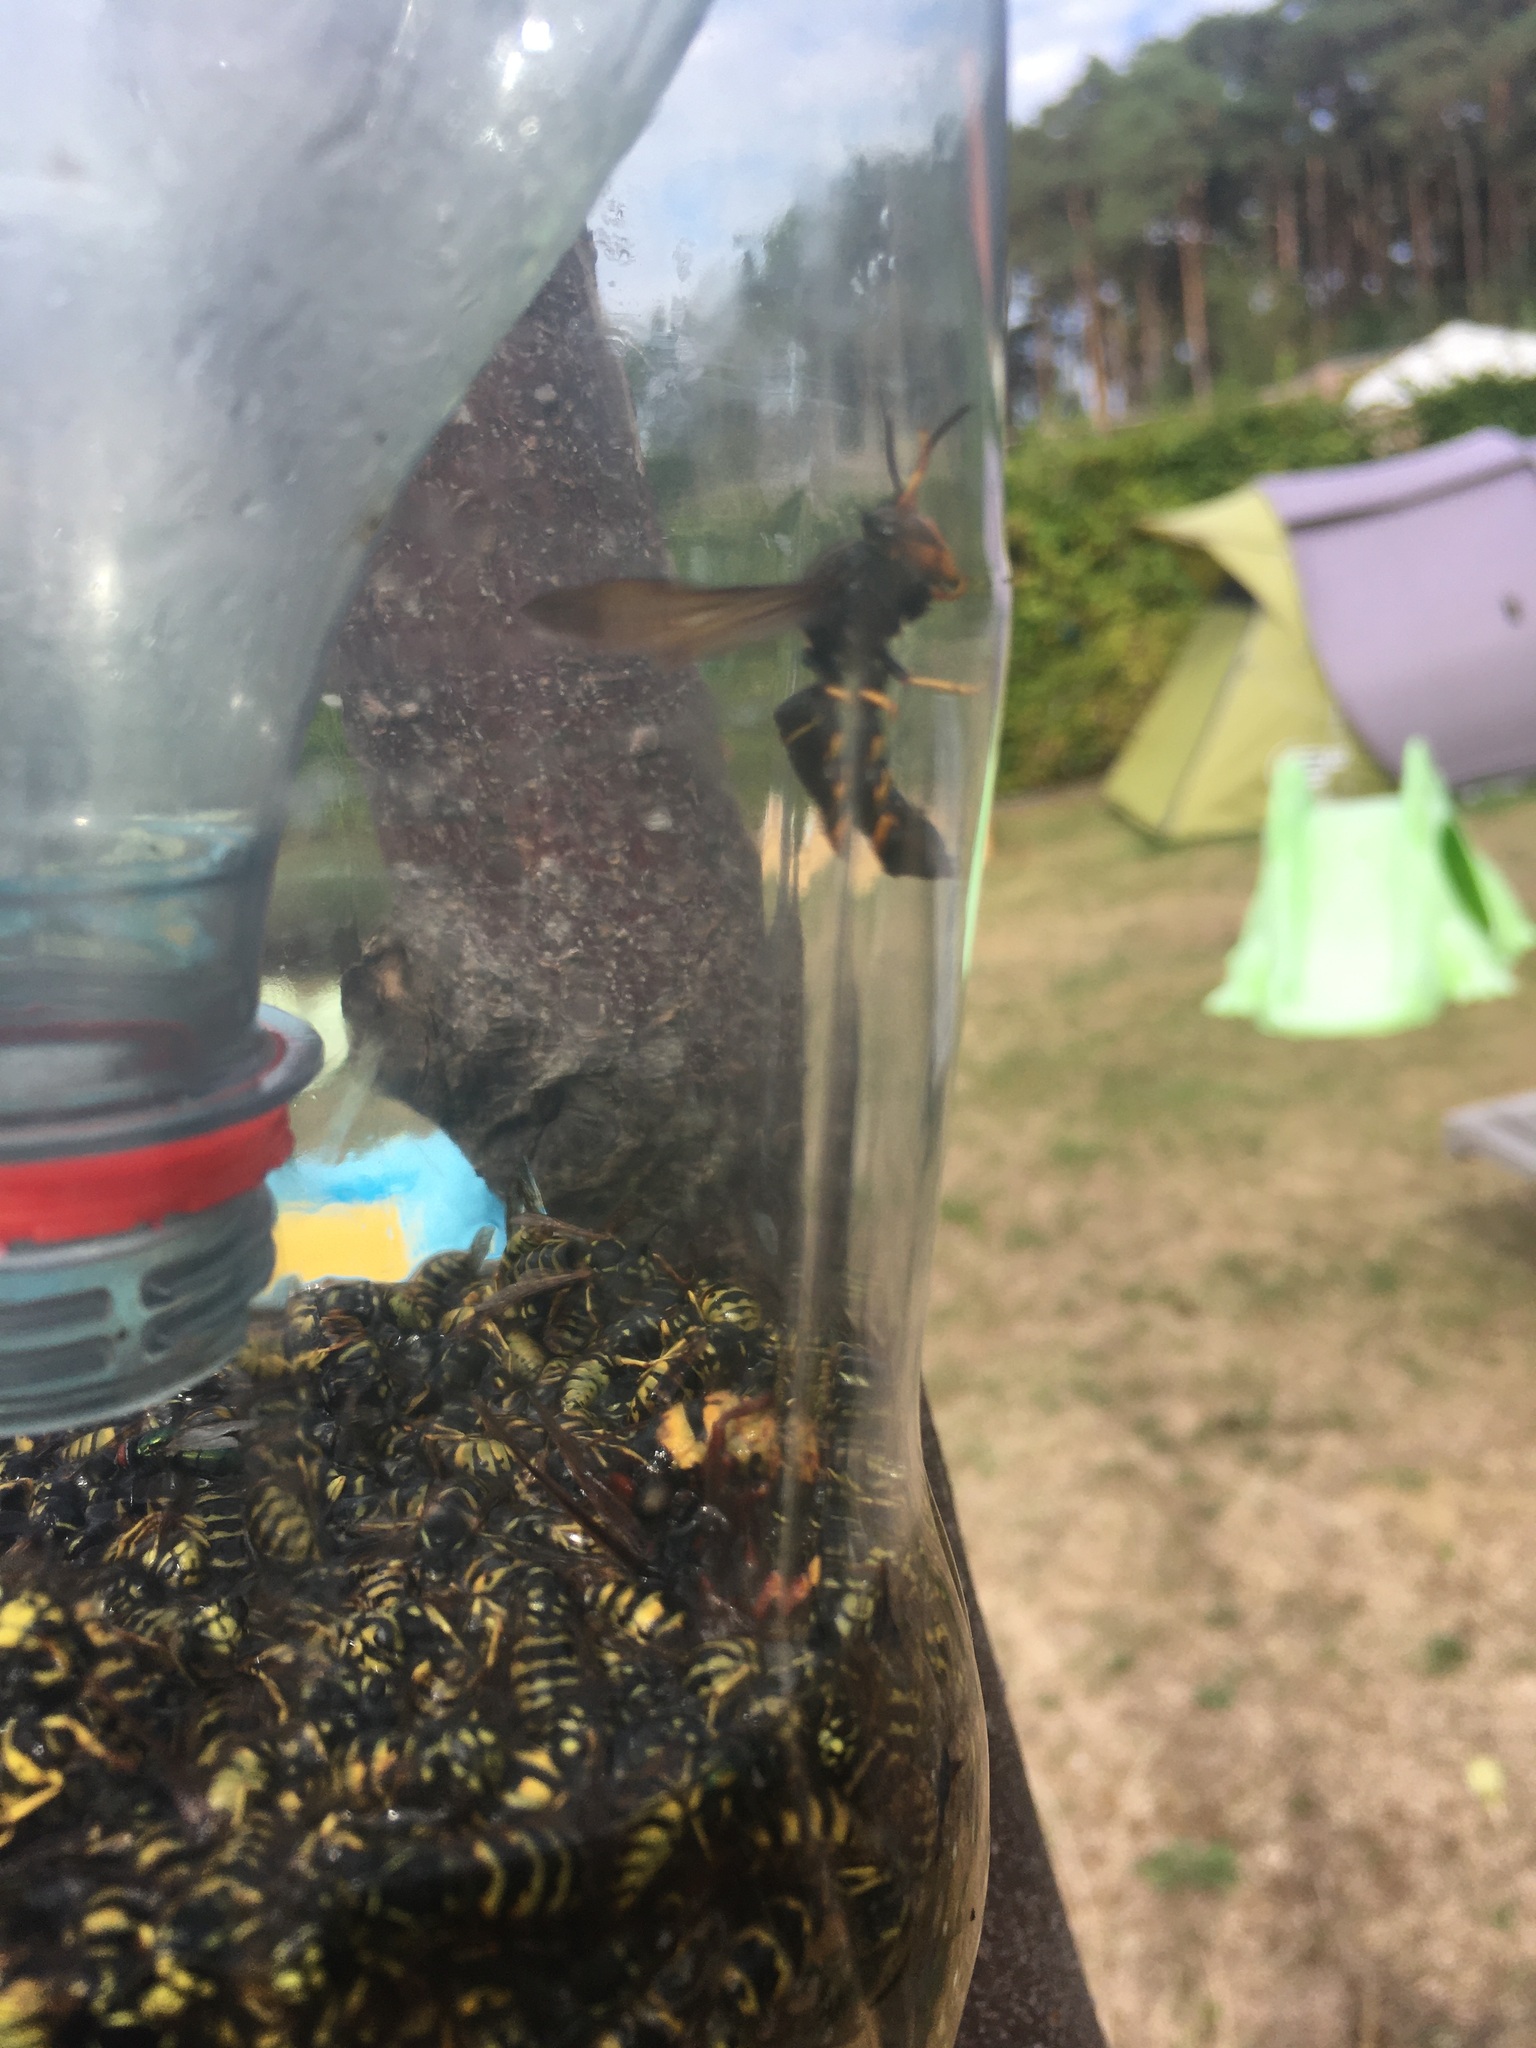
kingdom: Animalia
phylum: Arthropoda
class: Insecta
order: Hymenoptera
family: Vespidae
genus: Vespa
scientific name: Vespa velutina
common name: Asian hornet
